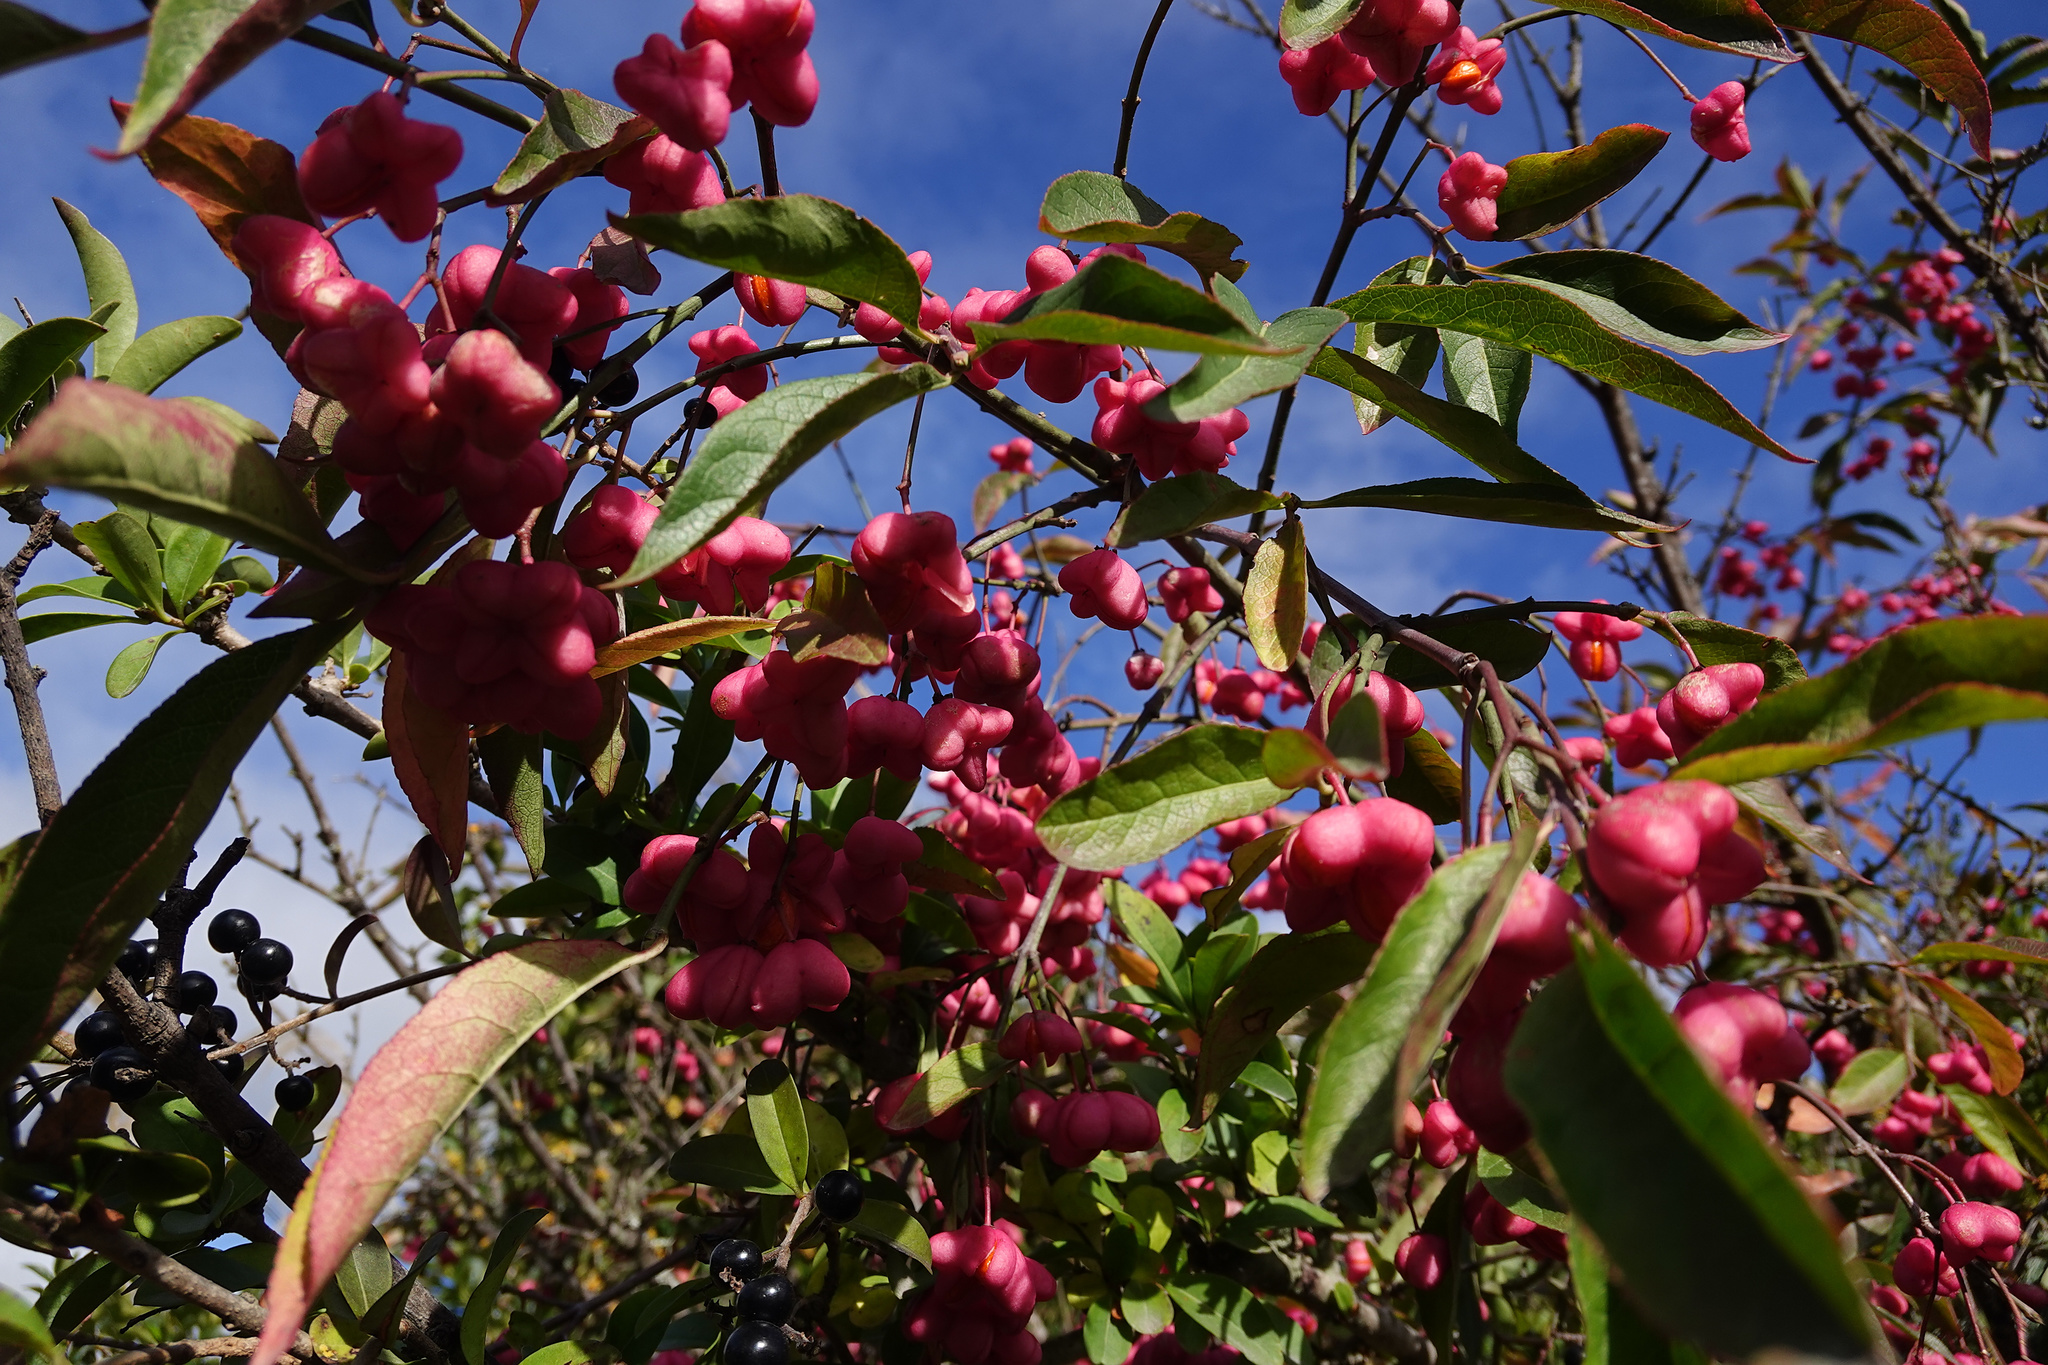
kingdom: Plantae
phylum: Tracheophyta
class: Magnoliopsida
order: Celastrales
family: Celastraceae
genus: Euonymus
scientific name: Euonymus europaeus
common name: Spindle
